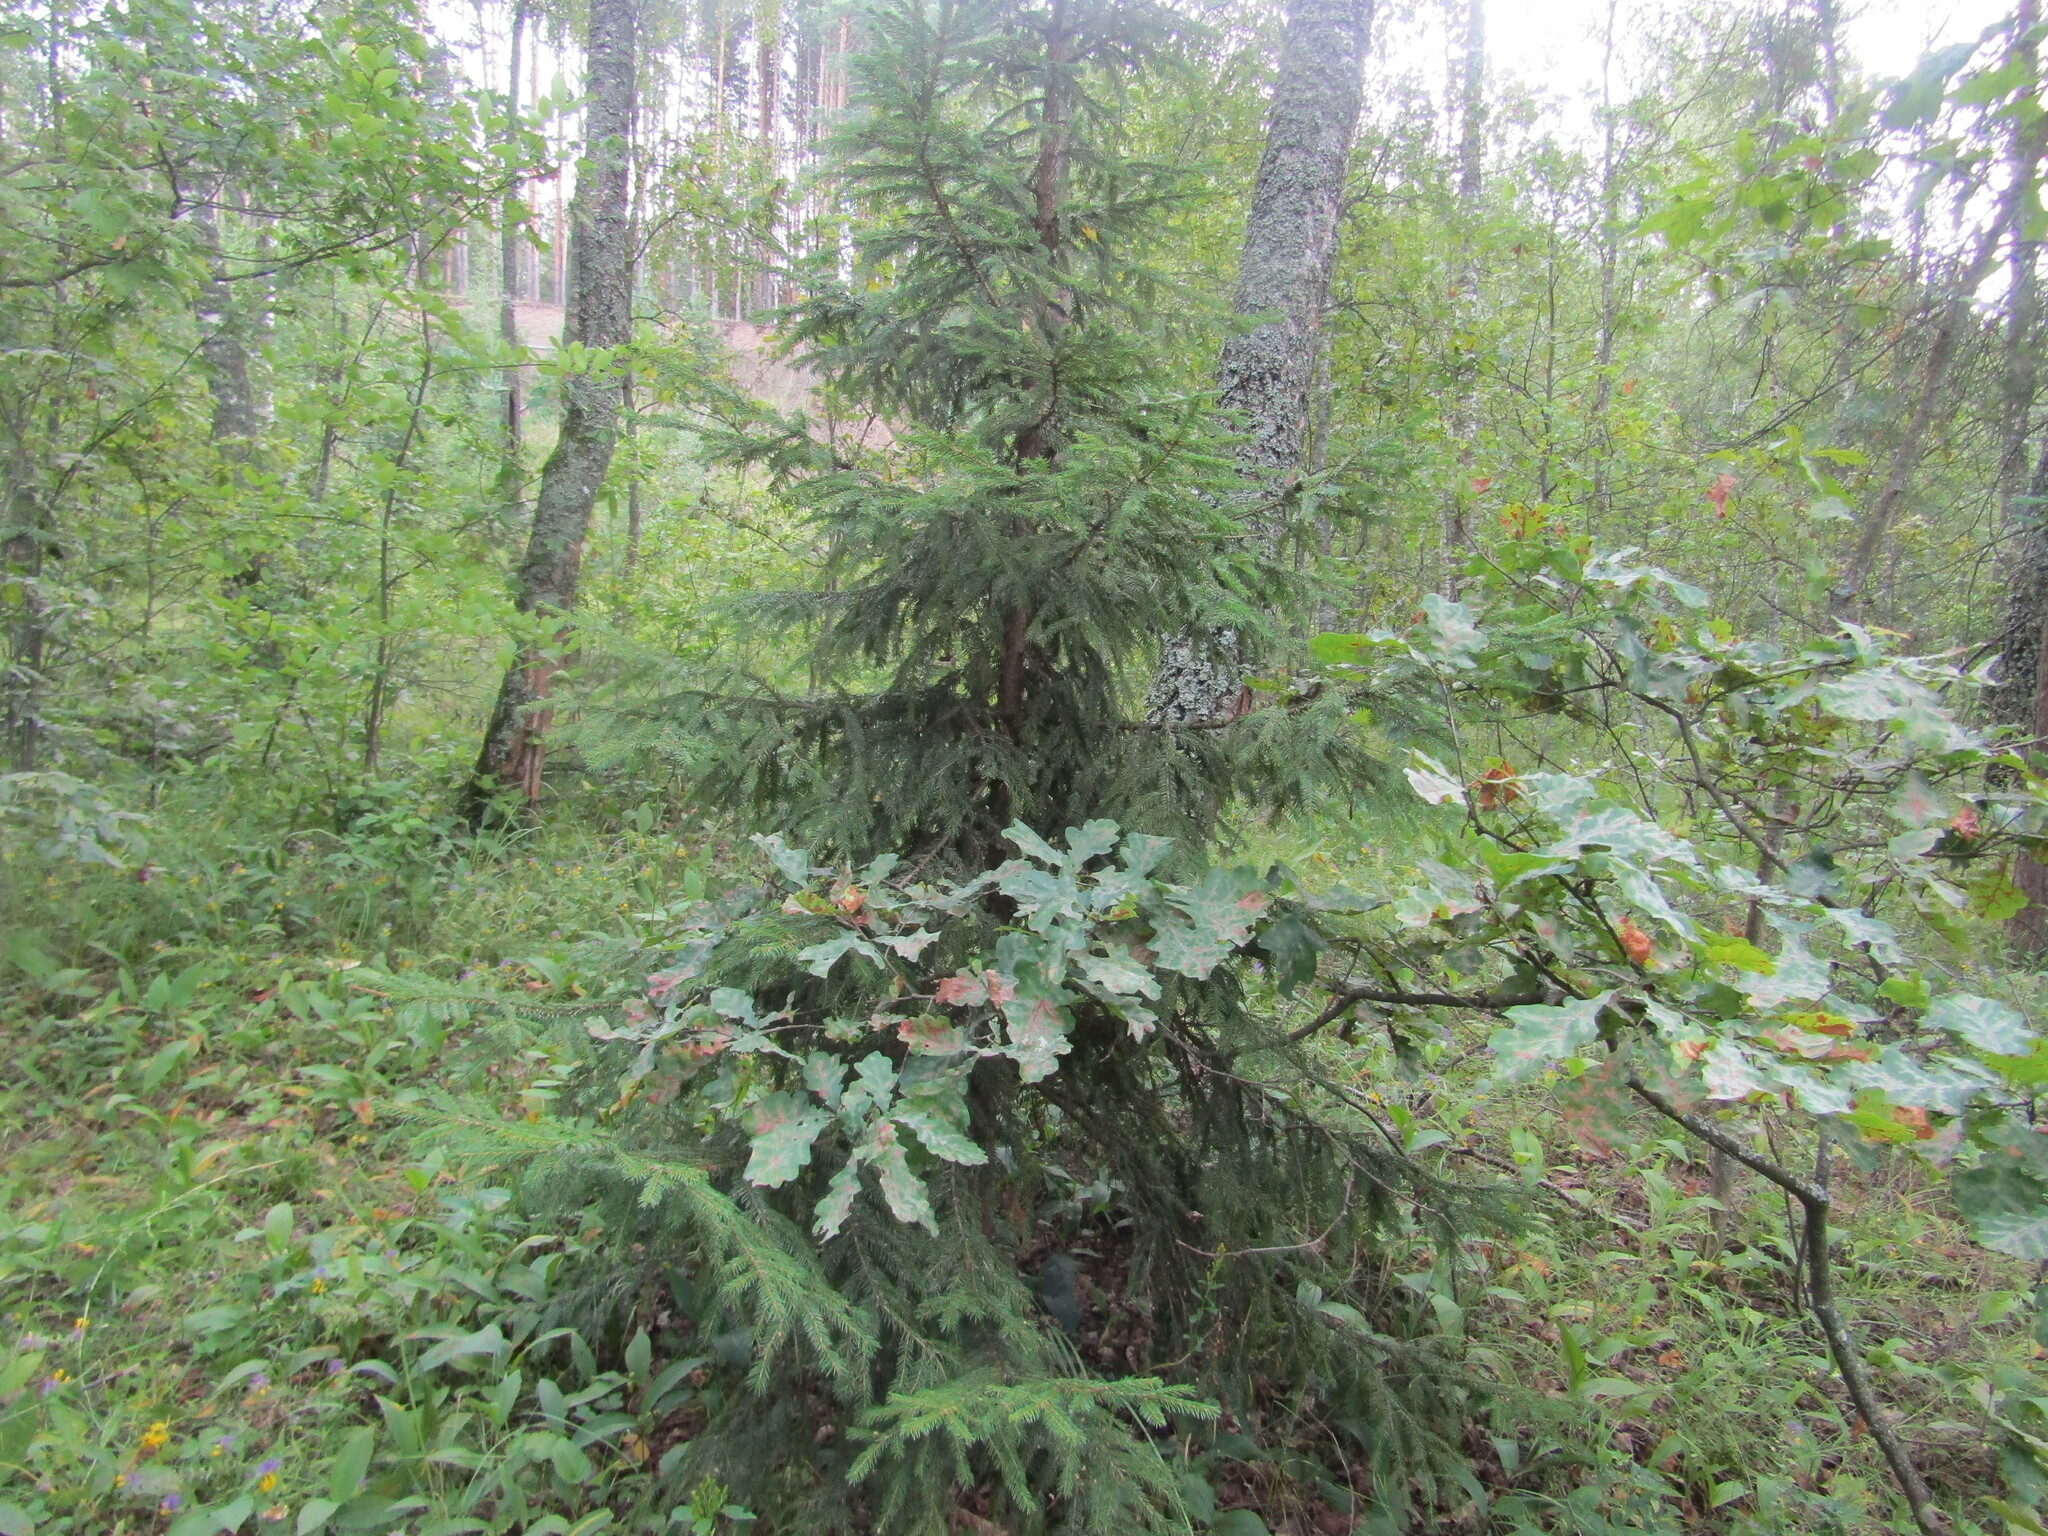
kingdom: Plantae
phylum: Tracheophyta
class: Pinopsida
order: Pinales
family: Pinaceae
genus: Picea
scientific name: Picea abies
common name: Norway spruce
